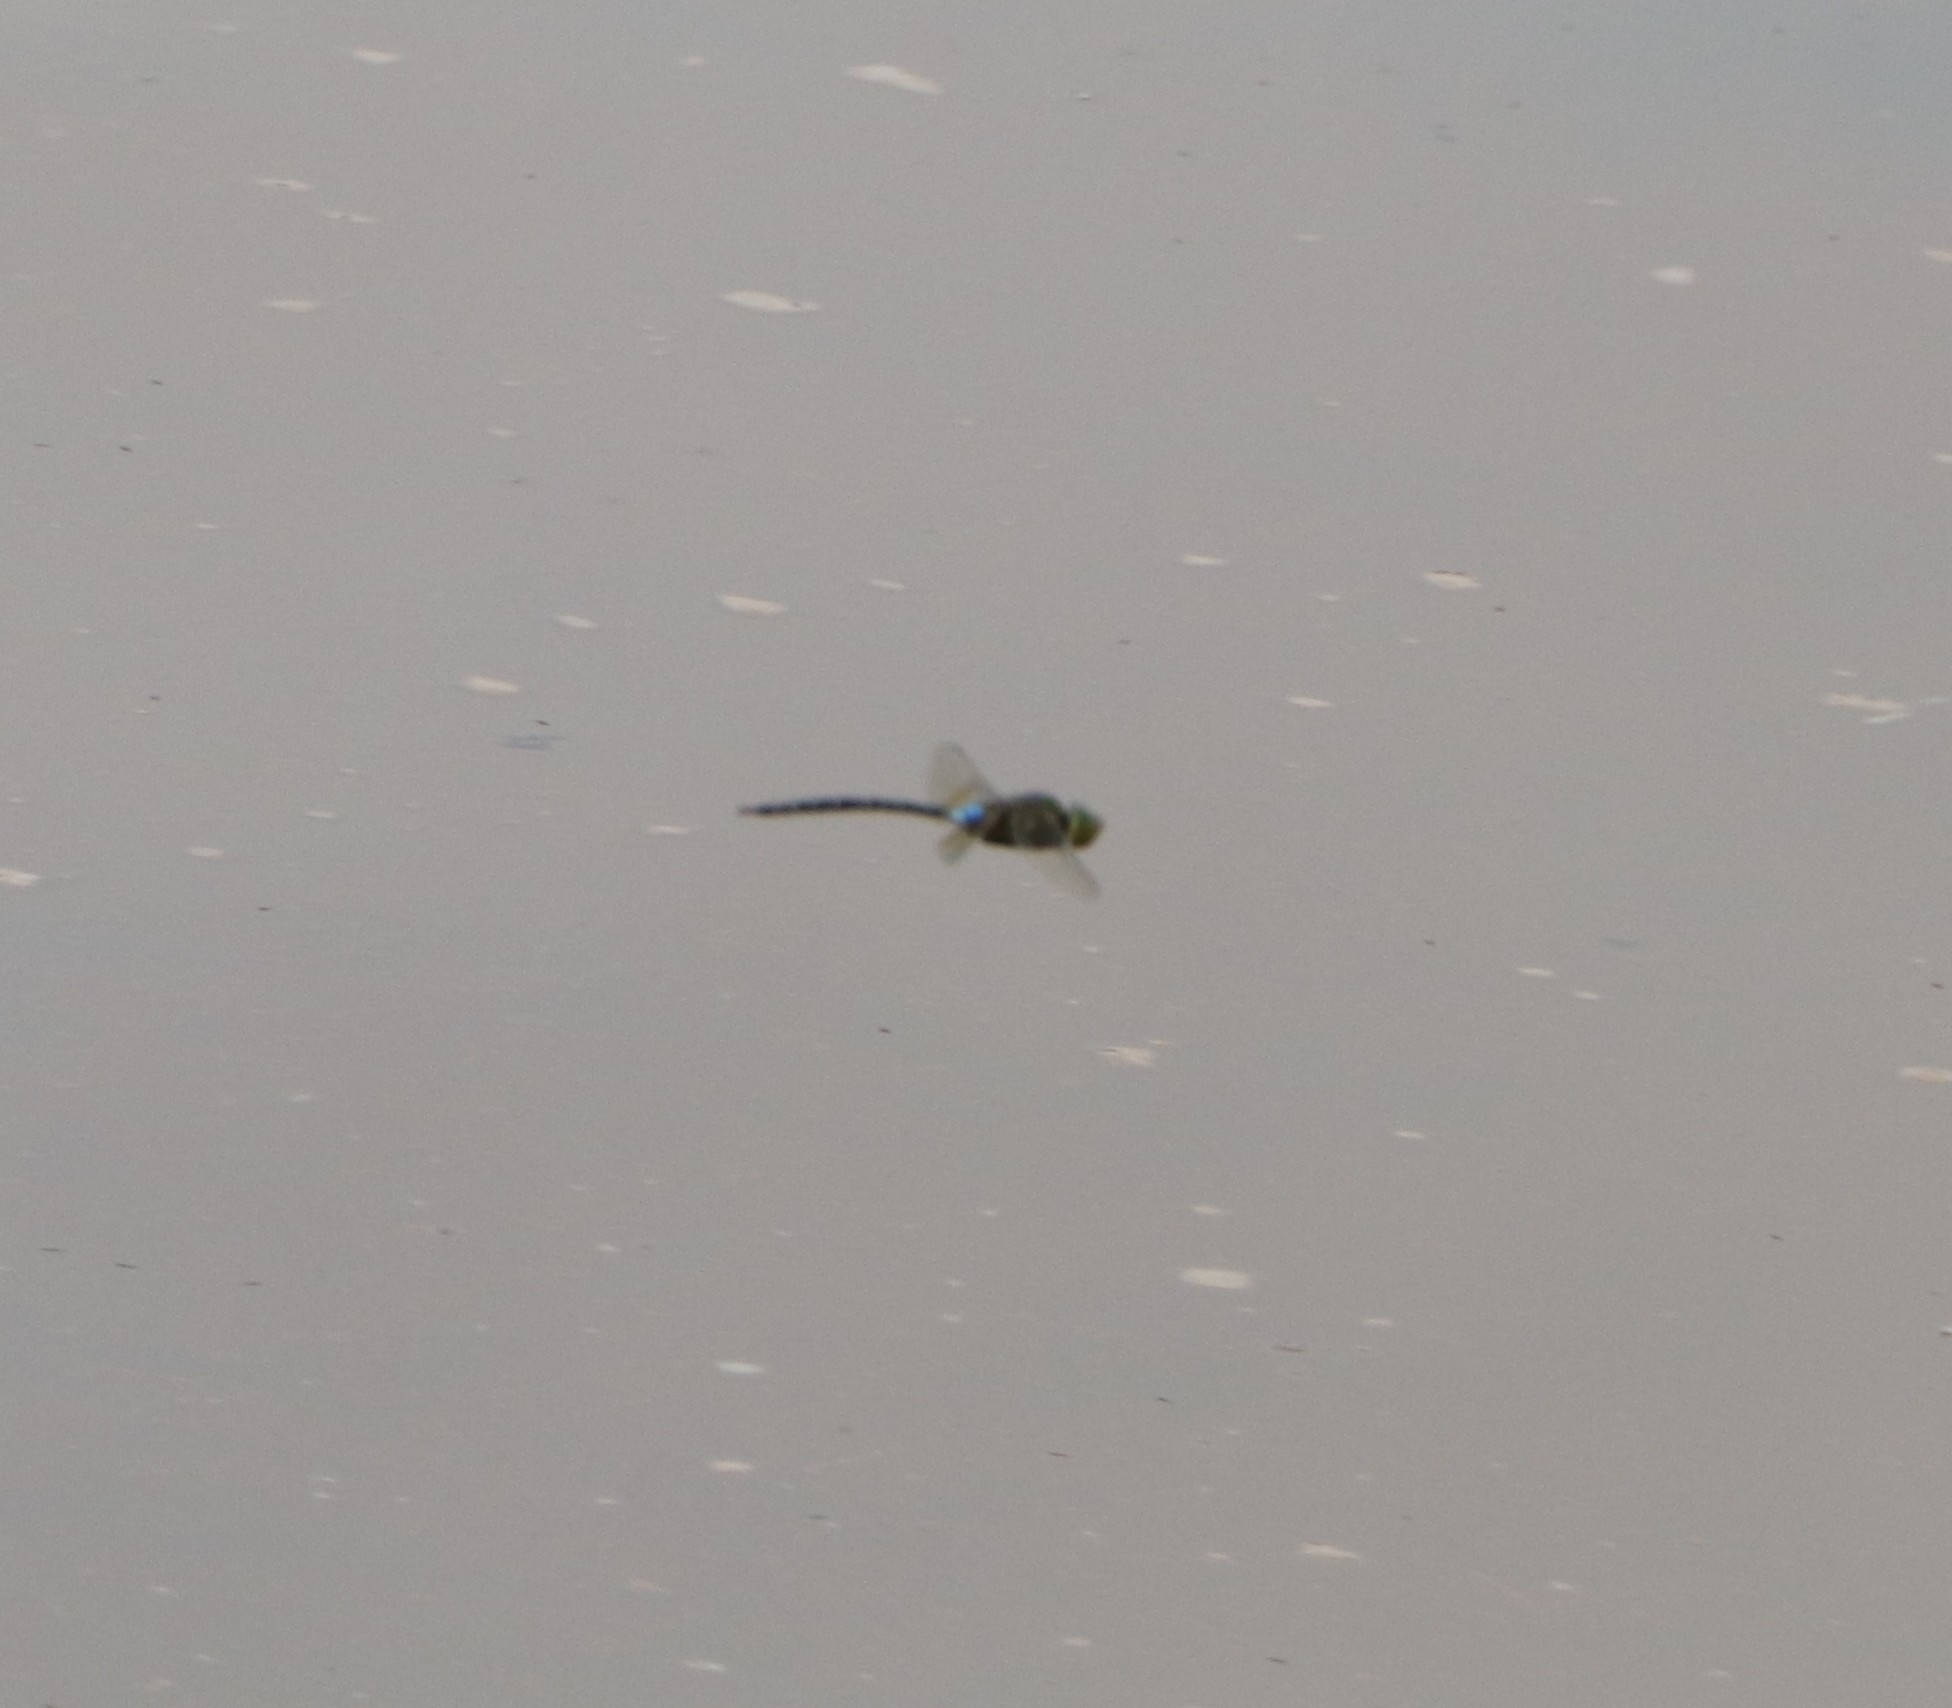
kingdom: Animalia
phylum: Arthropoda
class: Insecta
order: Odonata
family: Aeshnidae
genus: Anax
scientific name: Anax guttatus
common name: Emperor
